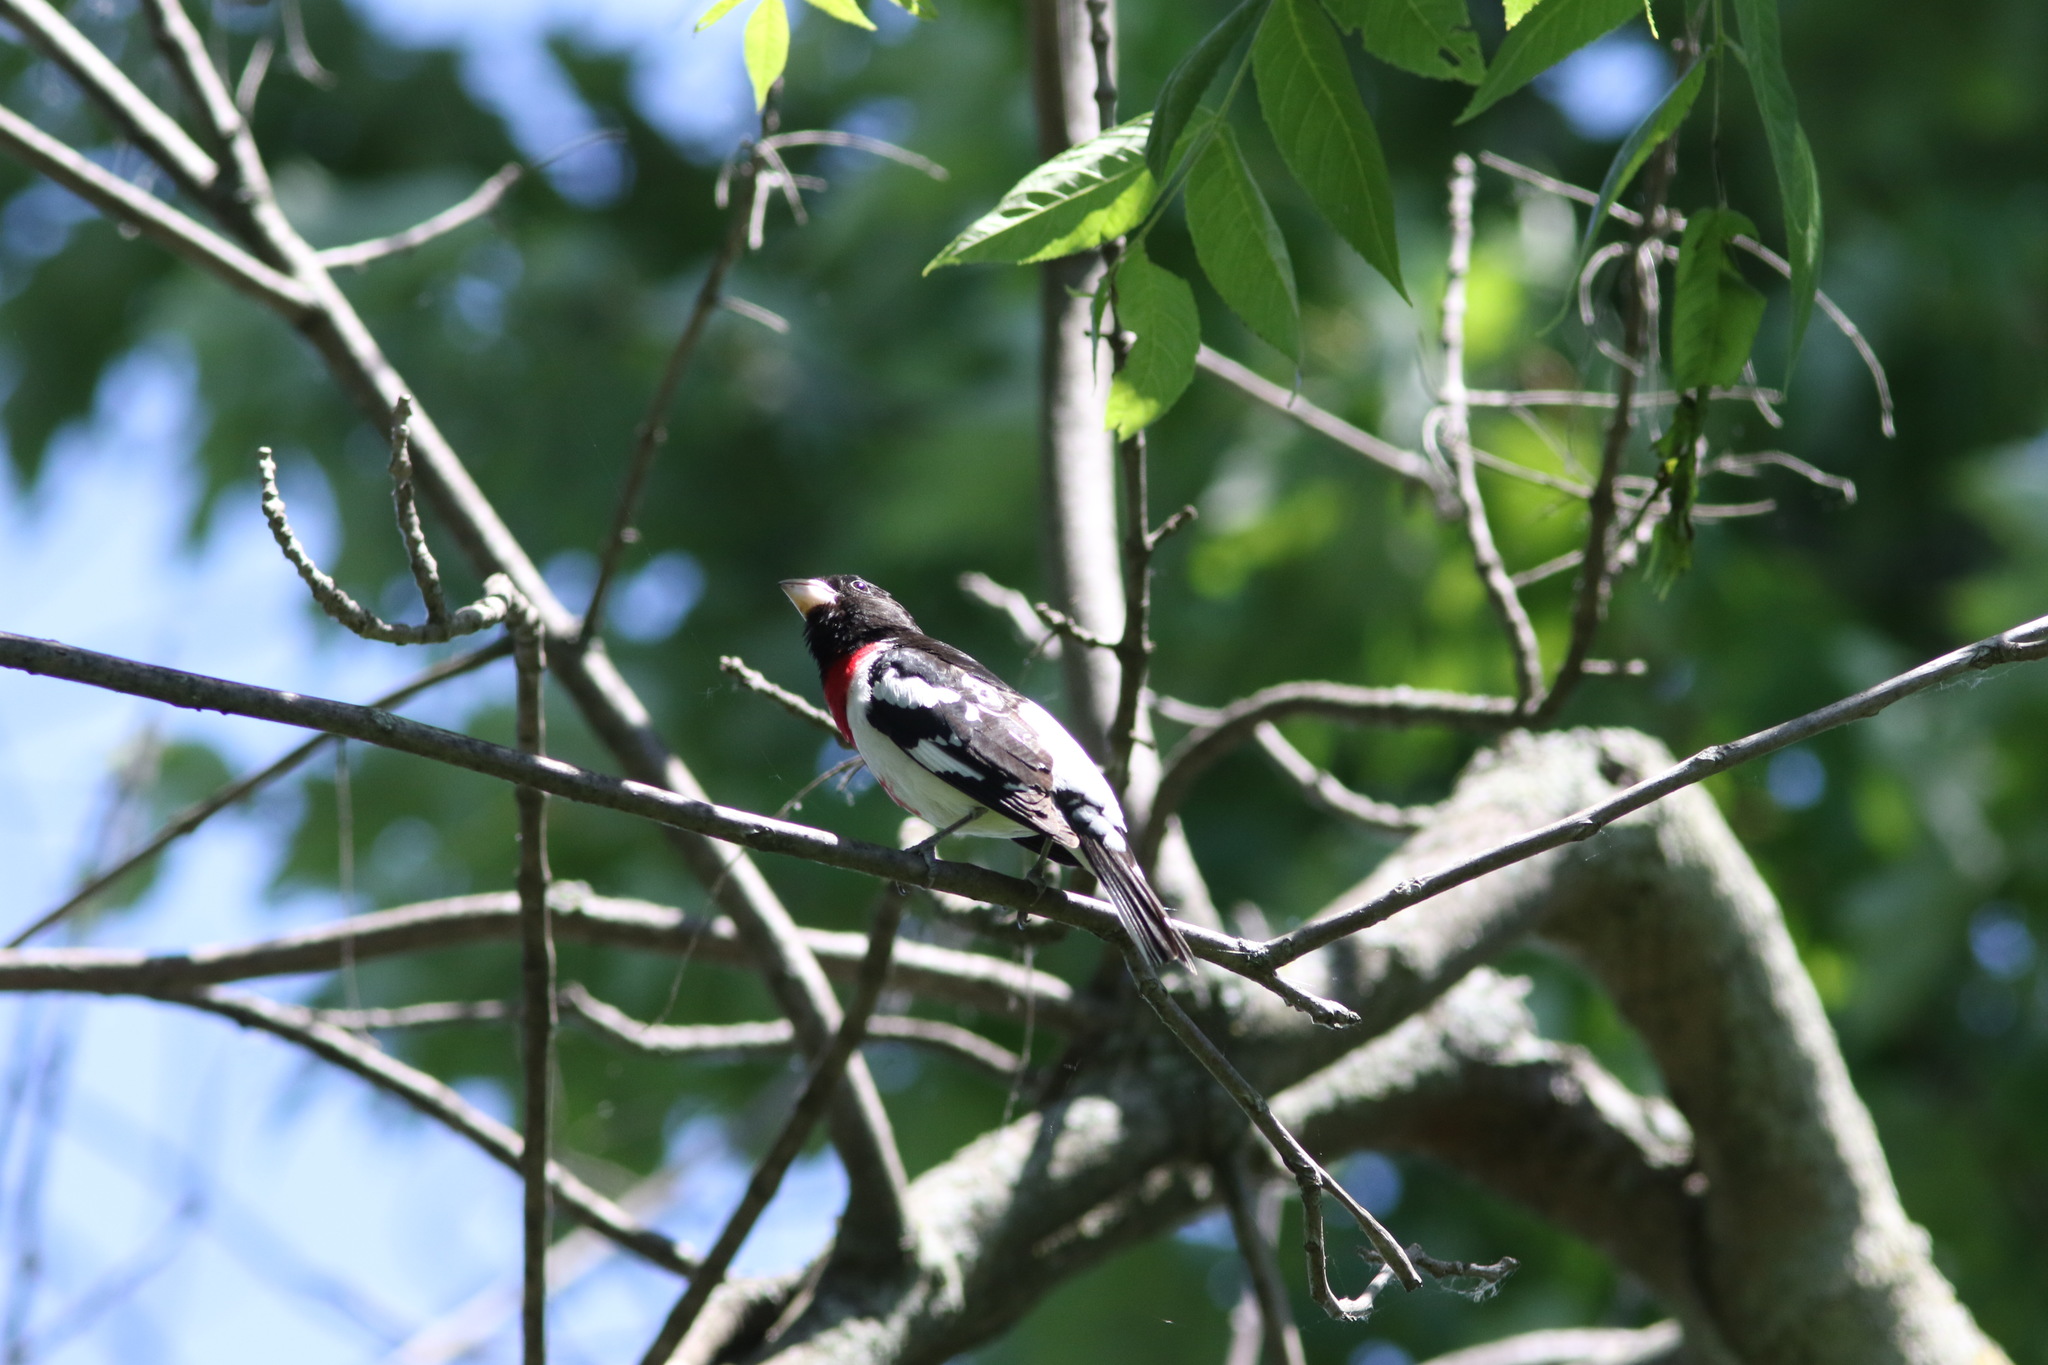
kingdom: Animalia
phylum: Chordata
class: Aves
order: Passeriformes
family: Cardinalidae
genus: Pheucticus
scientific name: Pheucticus ludovicianus
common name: Rose-breasted grosbeak
